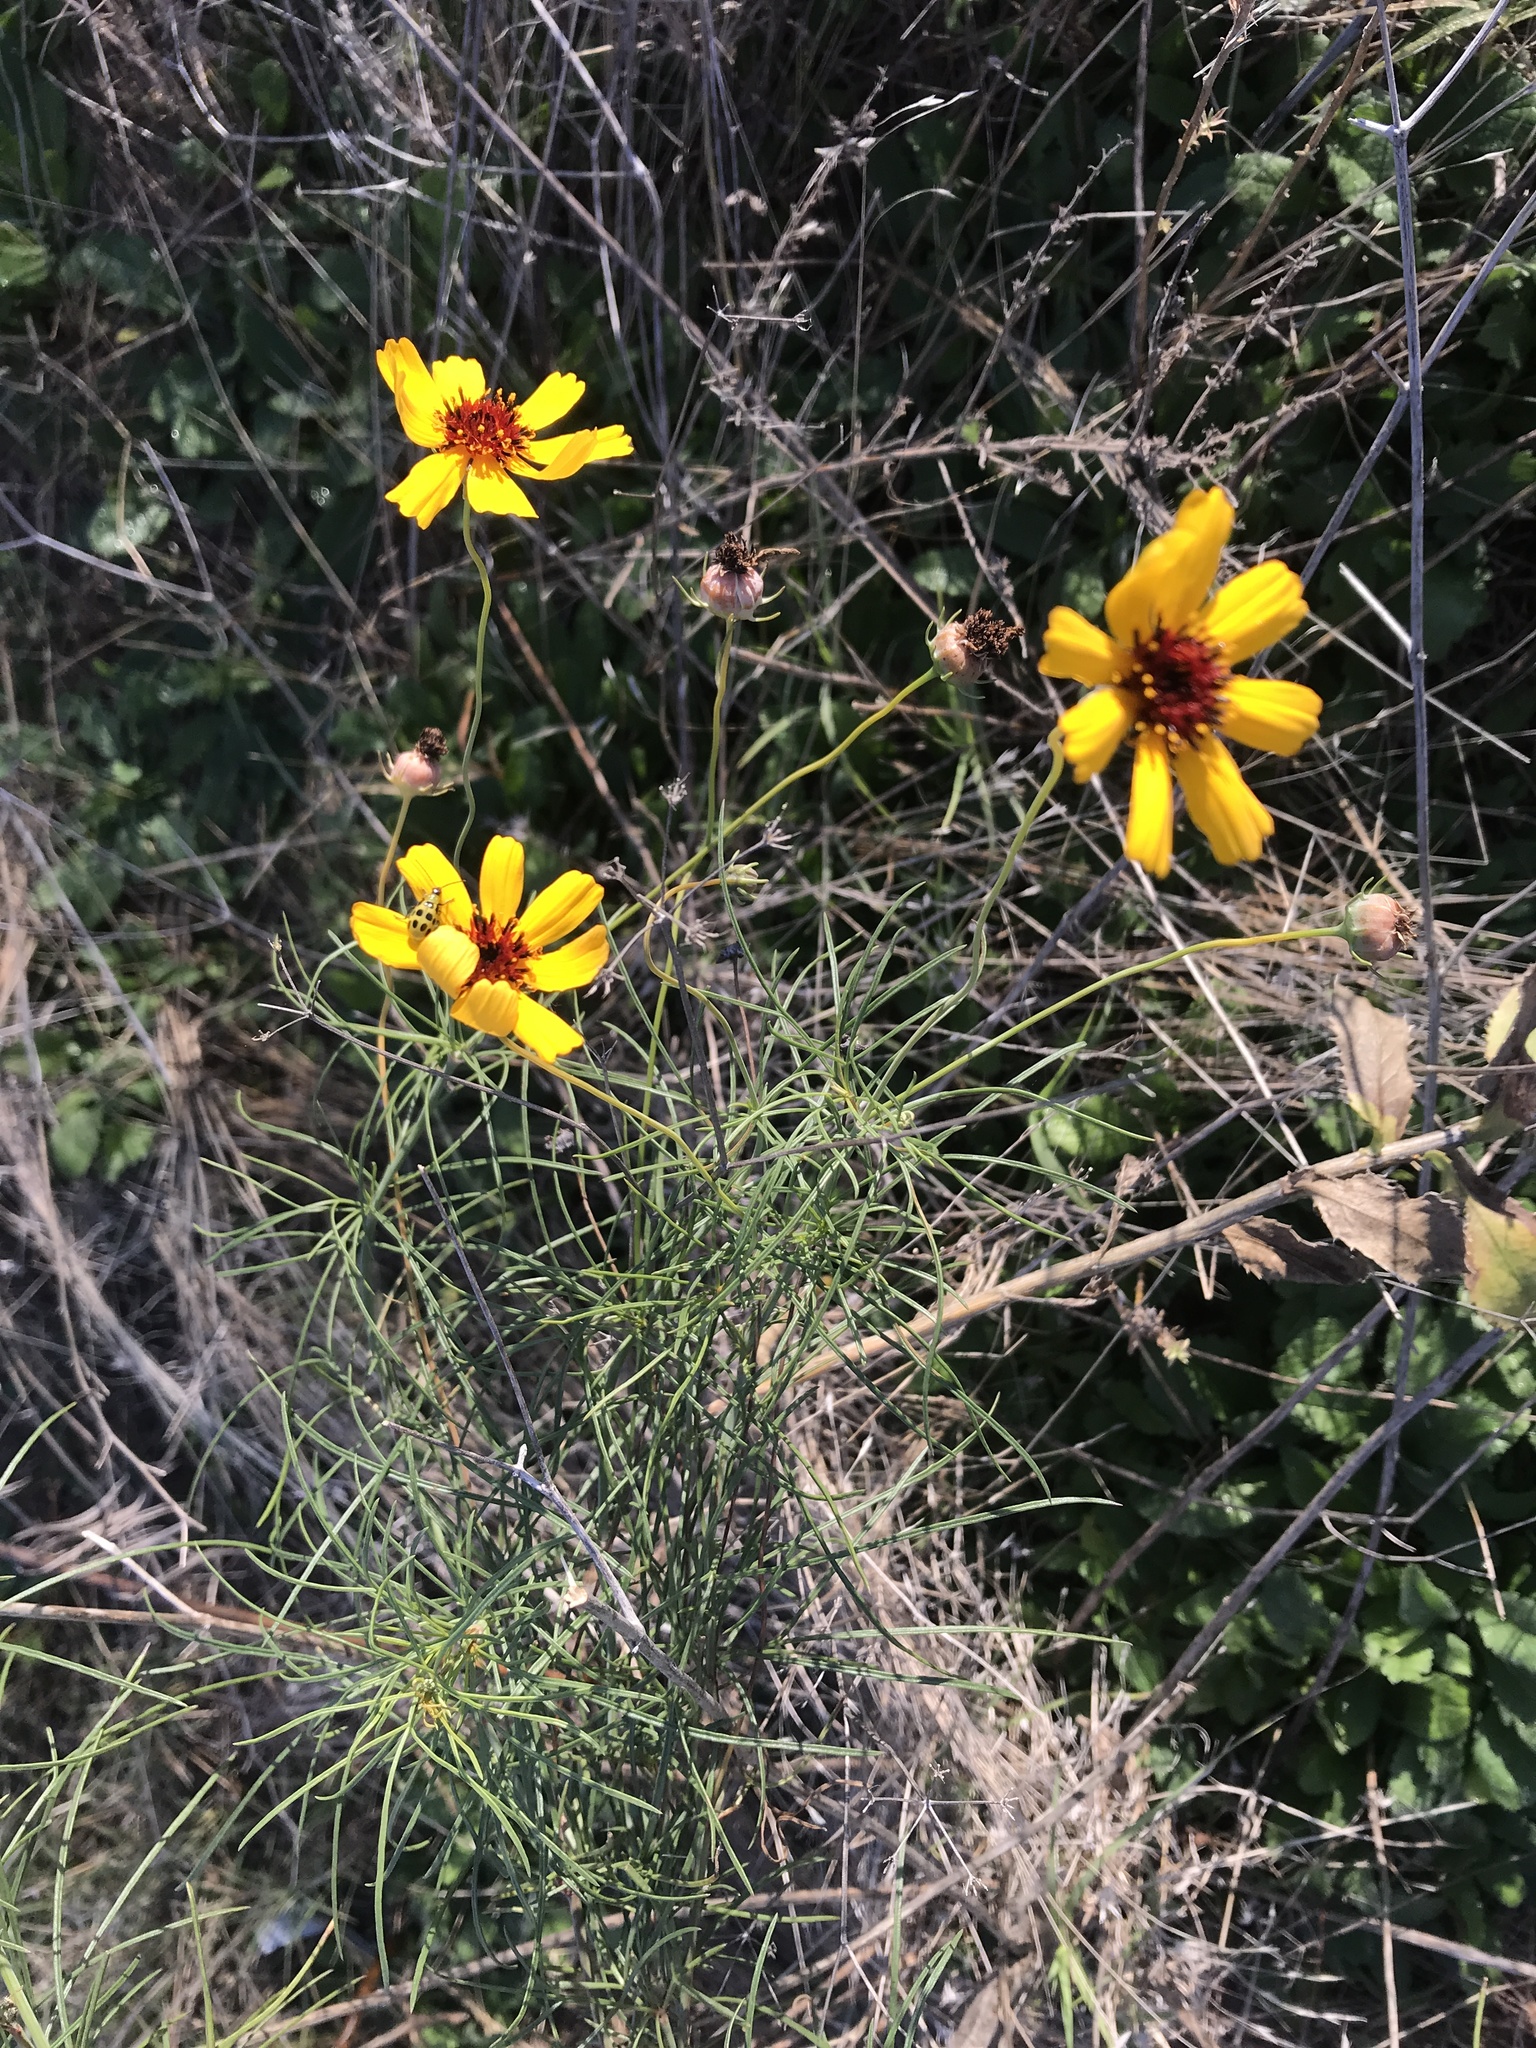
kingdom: Plantae
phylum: Tracheophyta
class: Magnoliopsida
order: Asterales
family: Asteraceae
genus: Thelesperma
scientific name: Thelesperma filifolium
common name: Stiff greenthread
